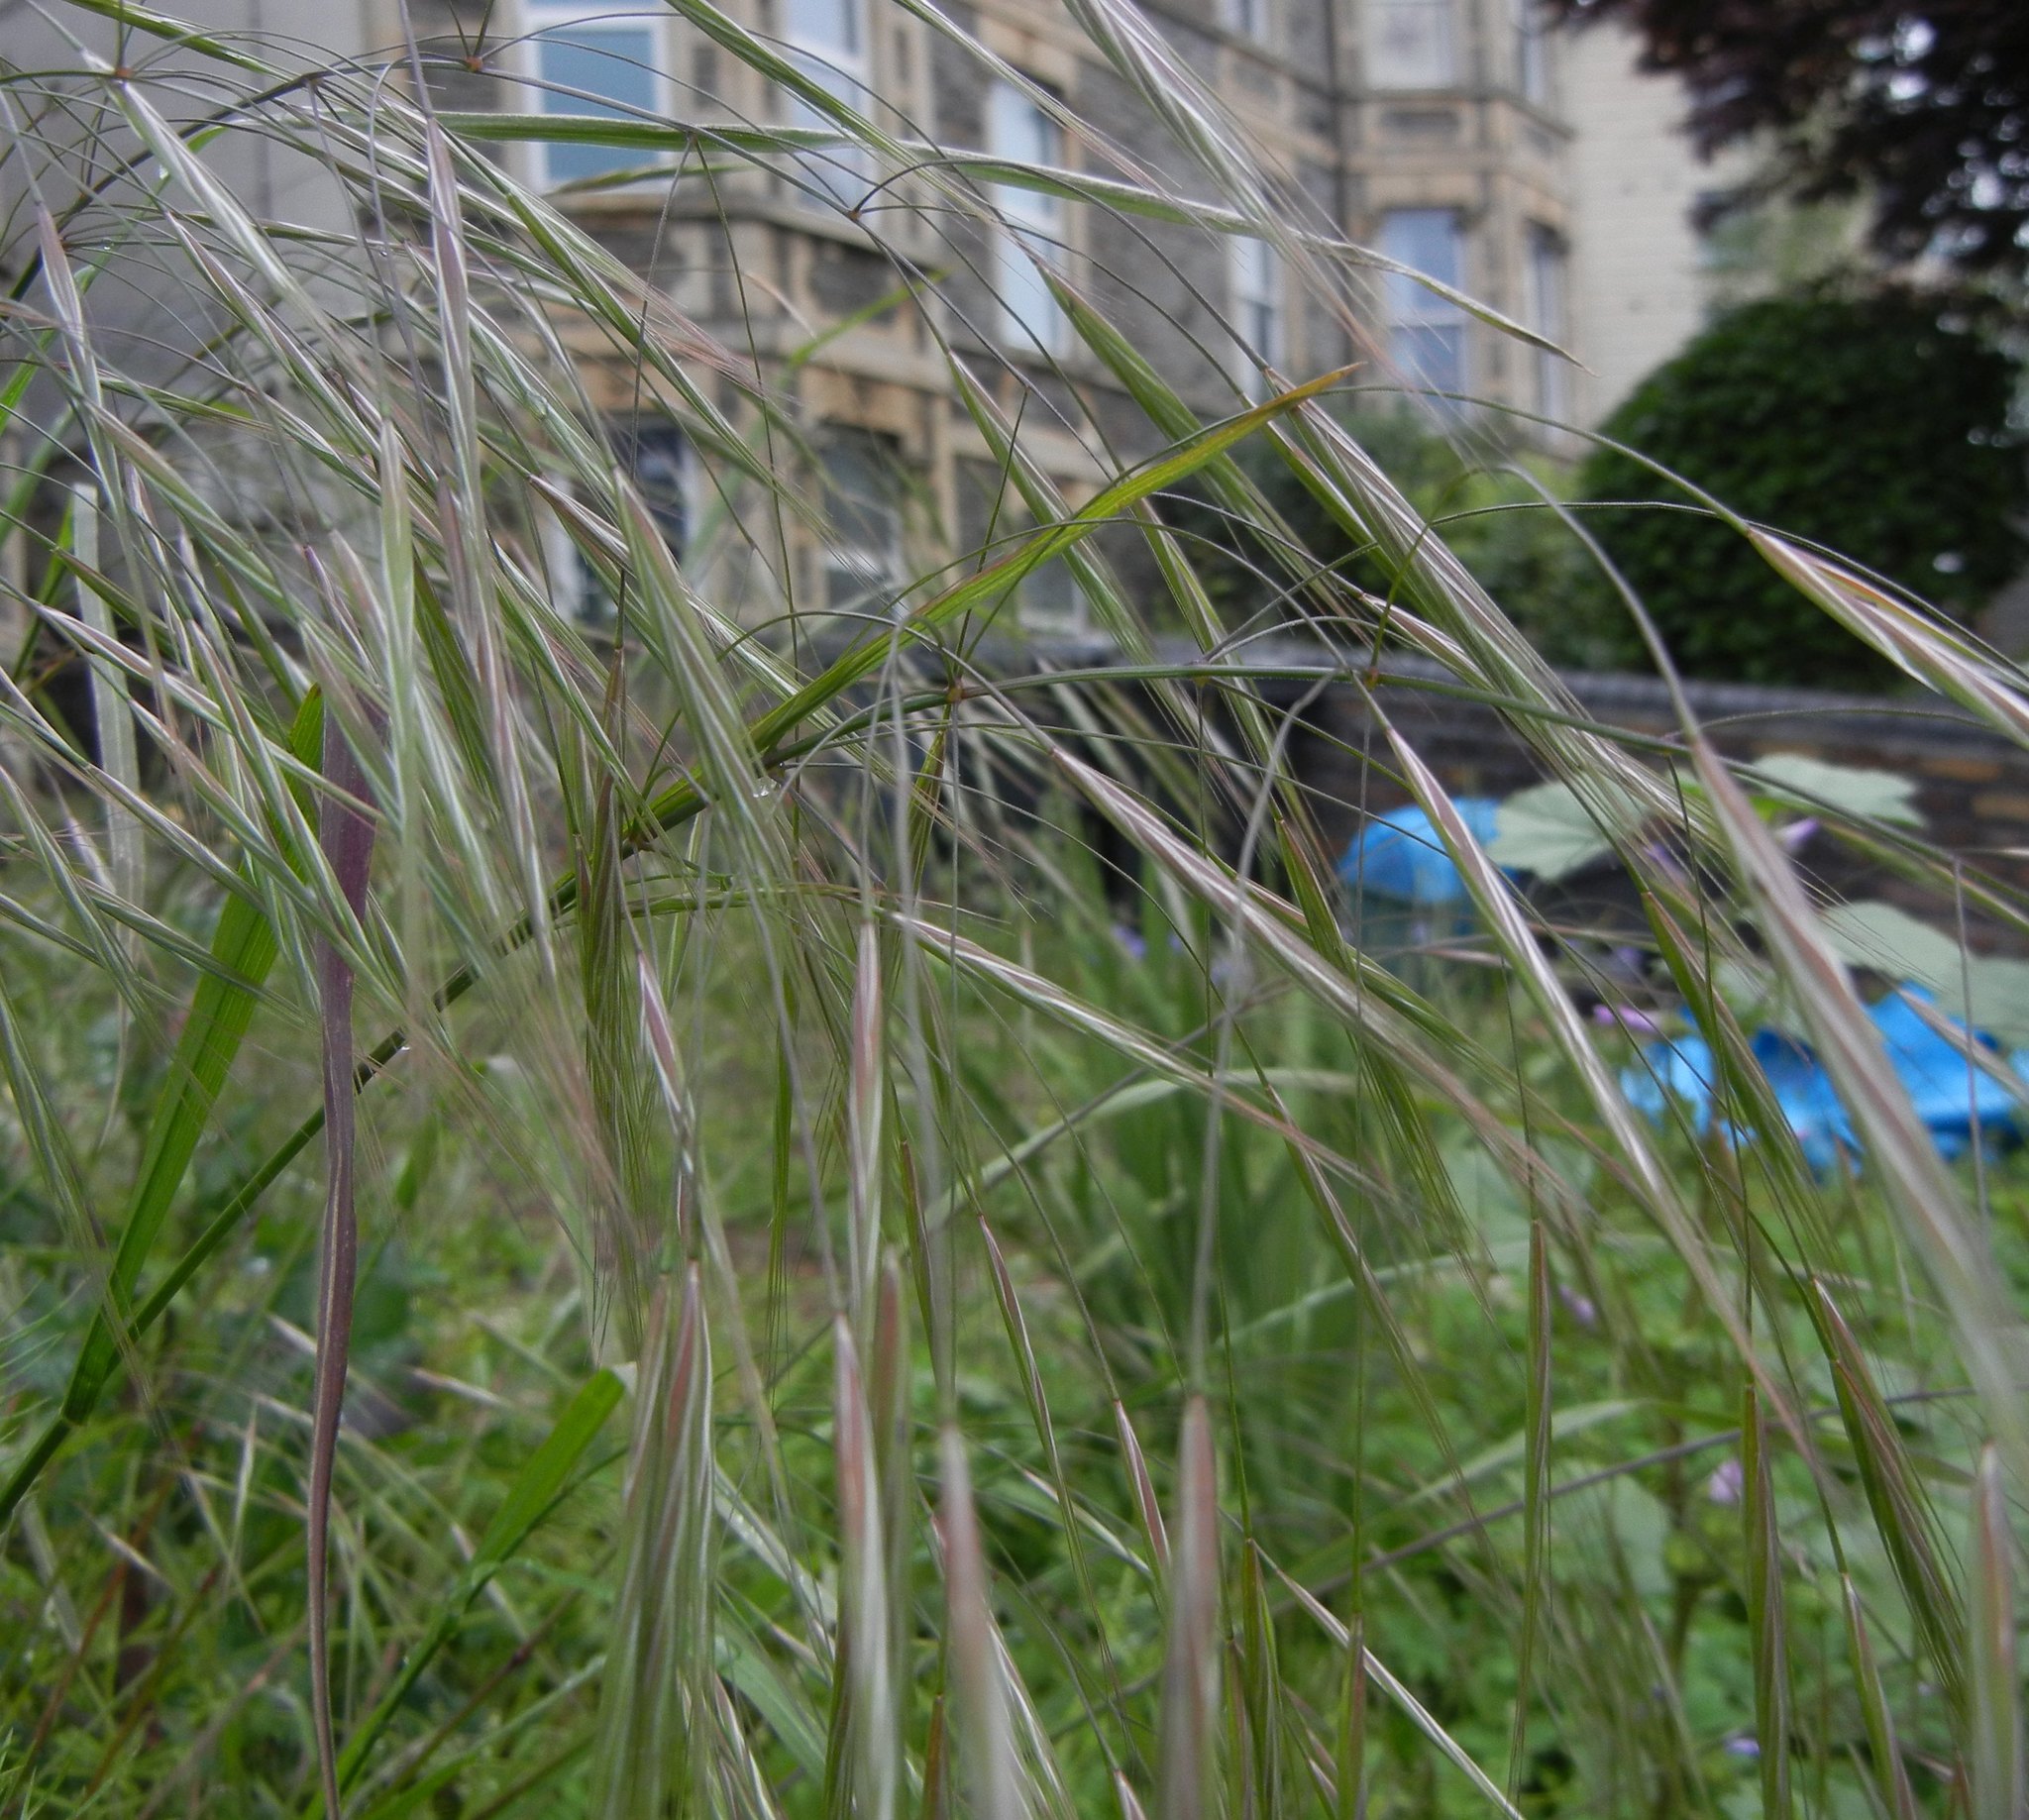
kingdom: Plantae
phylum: Tracheophyta
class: Liliopsida
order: Poales
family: Poaceae
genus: Bromus
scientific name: Bromus sterilis
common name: Poverty brome
